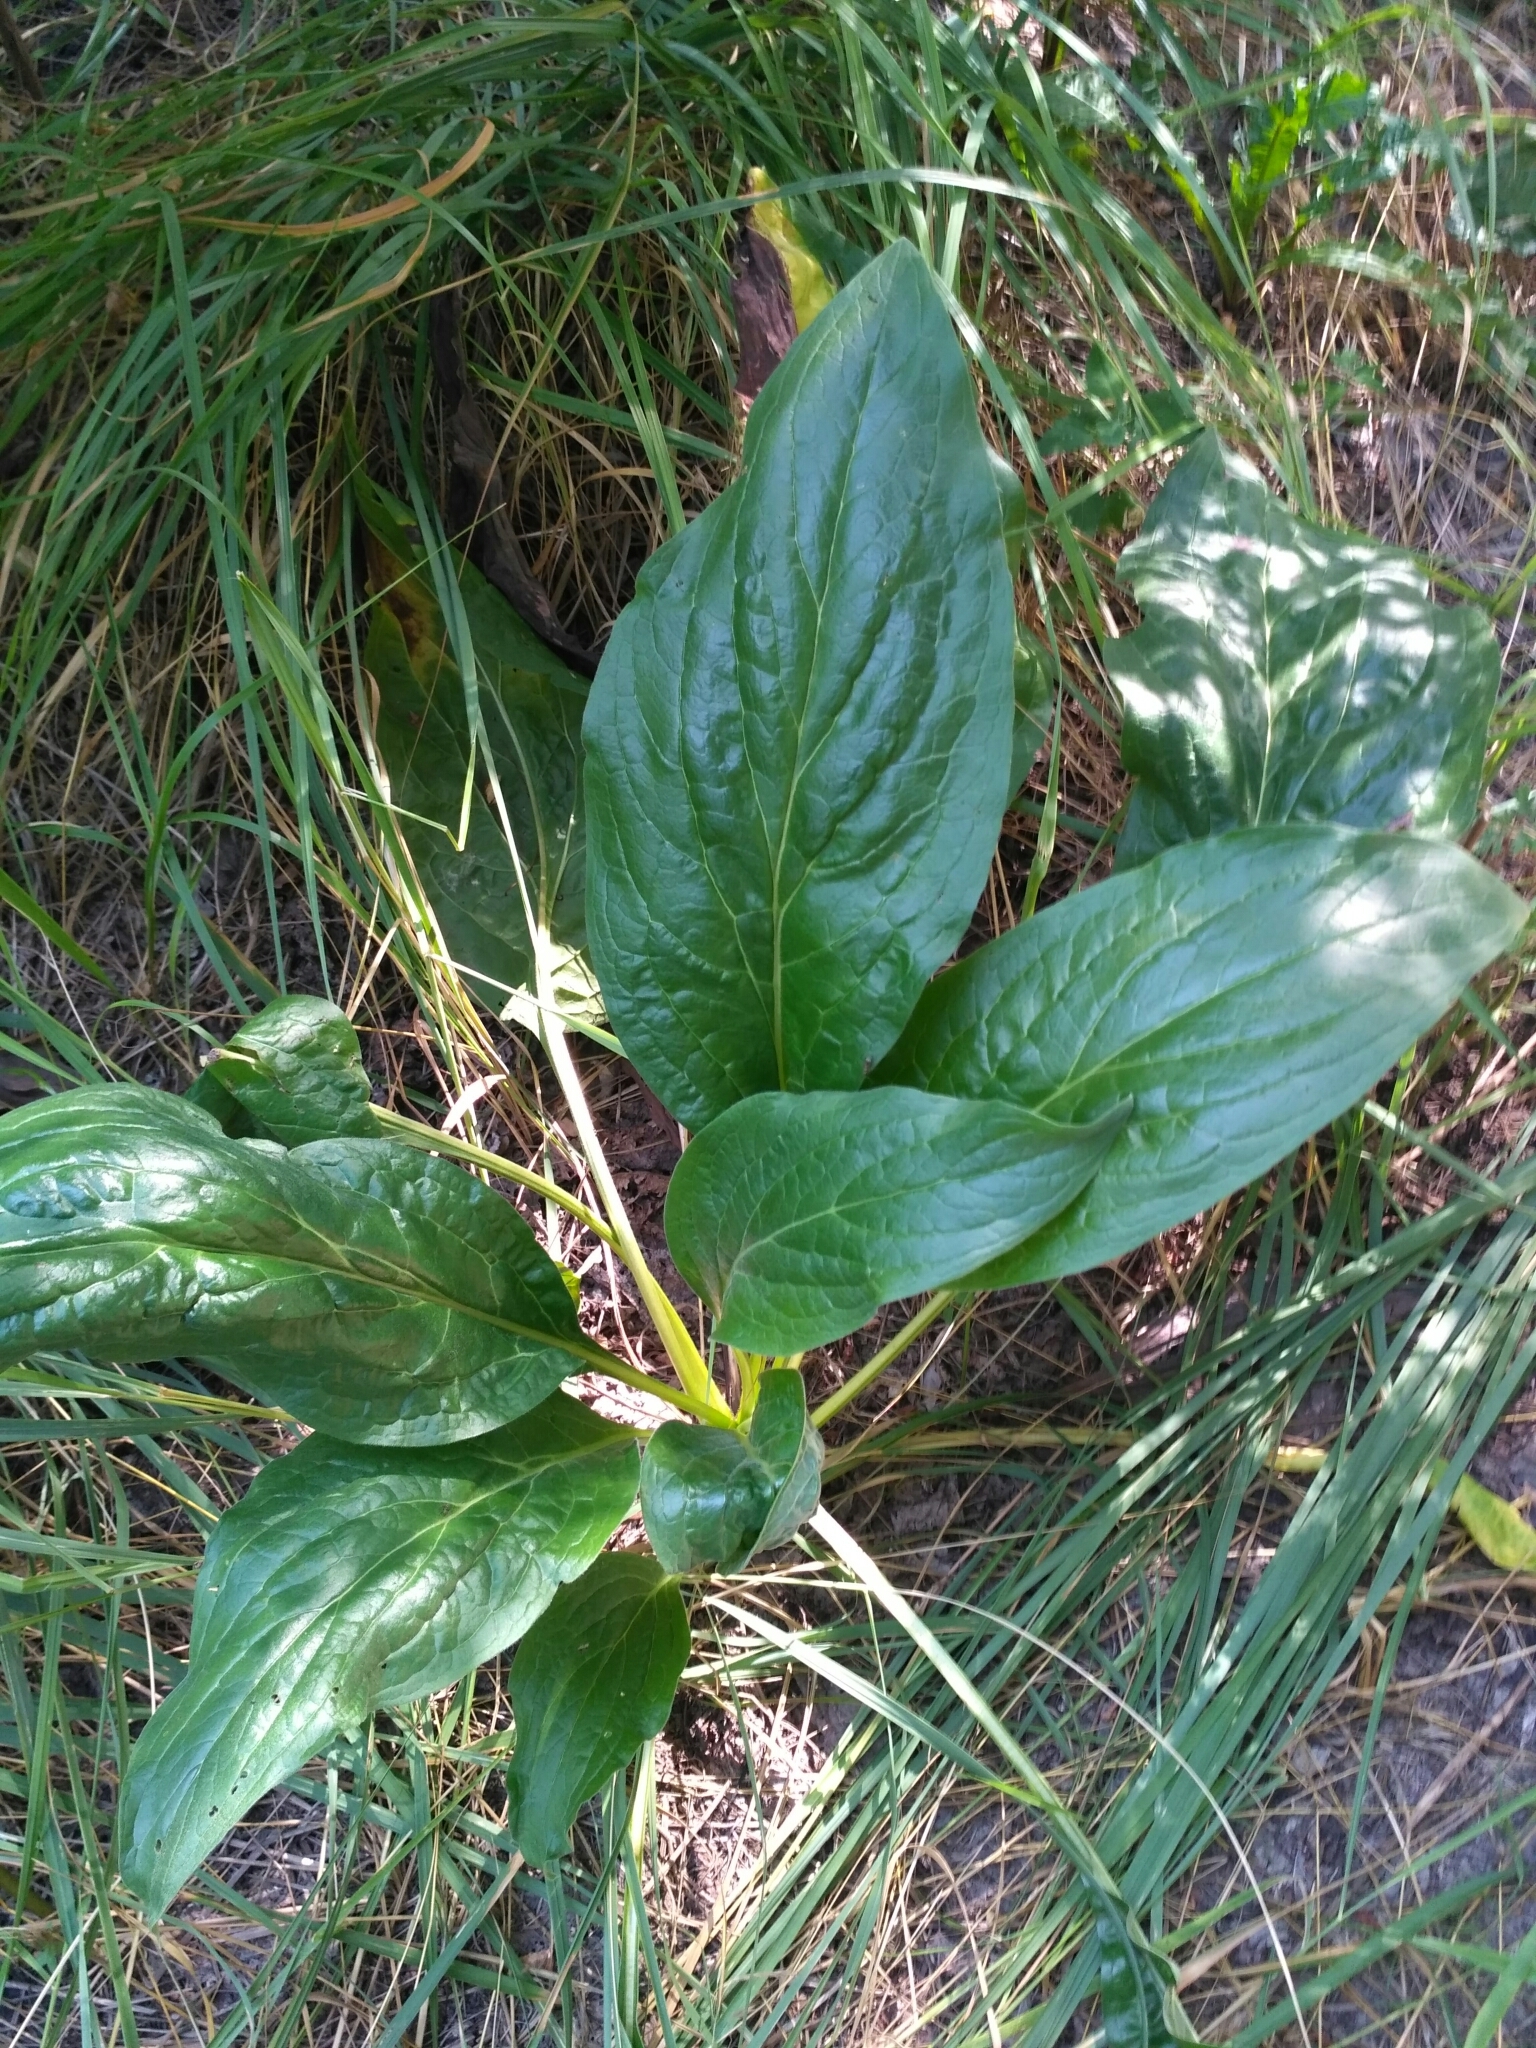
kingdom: Plantae
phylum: Tracheophyta
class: Magnoliopsida
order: Boraginales
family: Boraginaceae
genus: Cynoglossum
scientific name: Cynoglossum officinale
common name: Hound's-tongue
